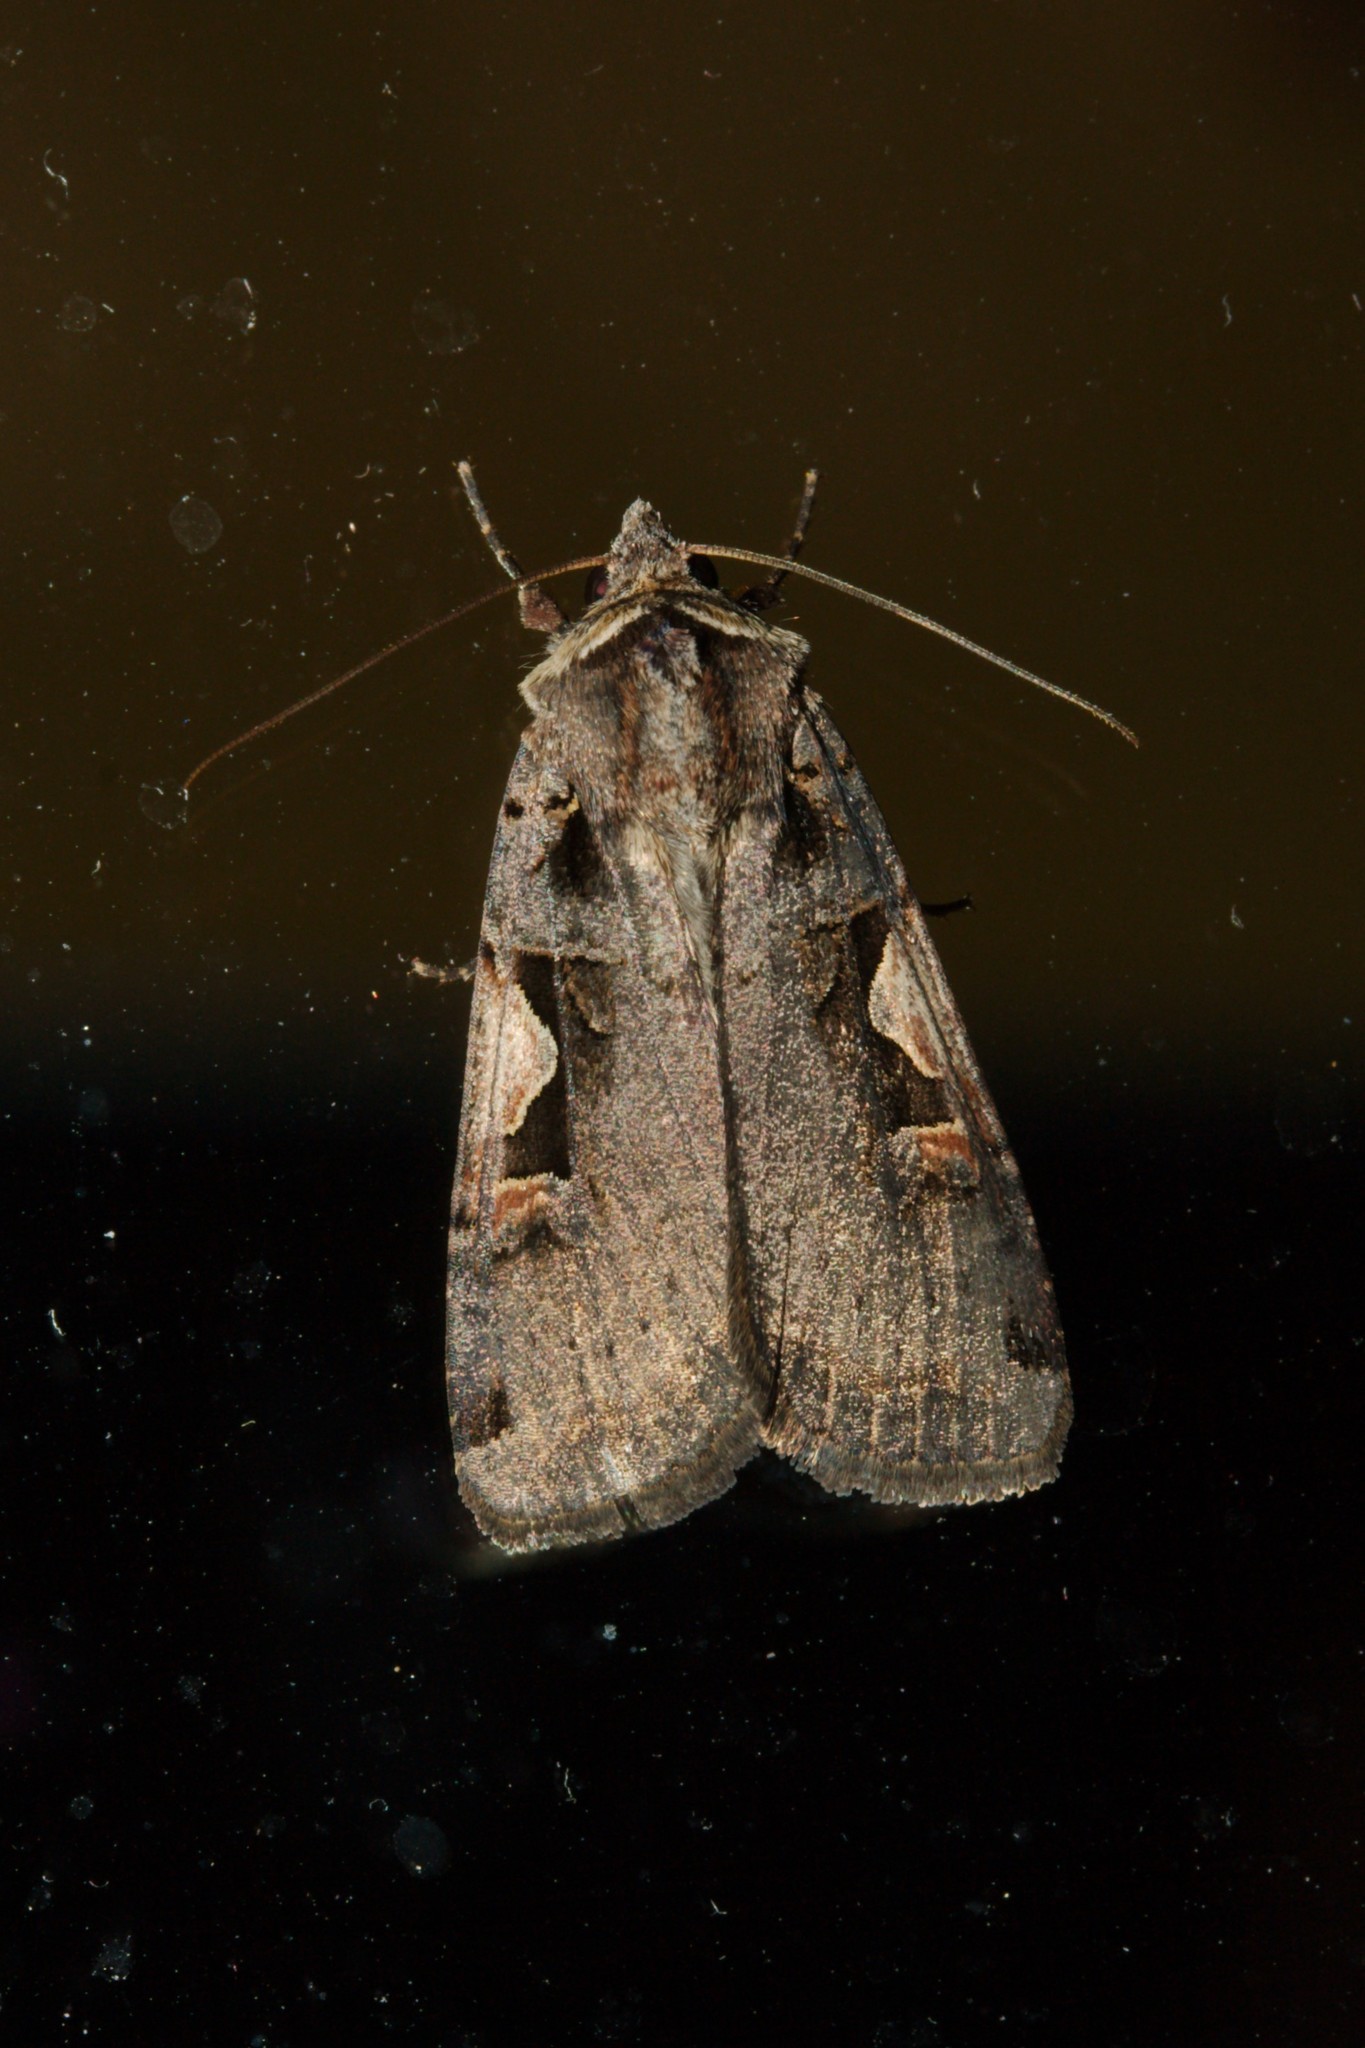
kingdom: Animalia
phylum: Arthropoda
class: Insecta
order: Lepidoptera
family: Noctuidae
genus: Xestia
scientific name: Xestia c-nigrum
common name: Setaceous hebrew character
